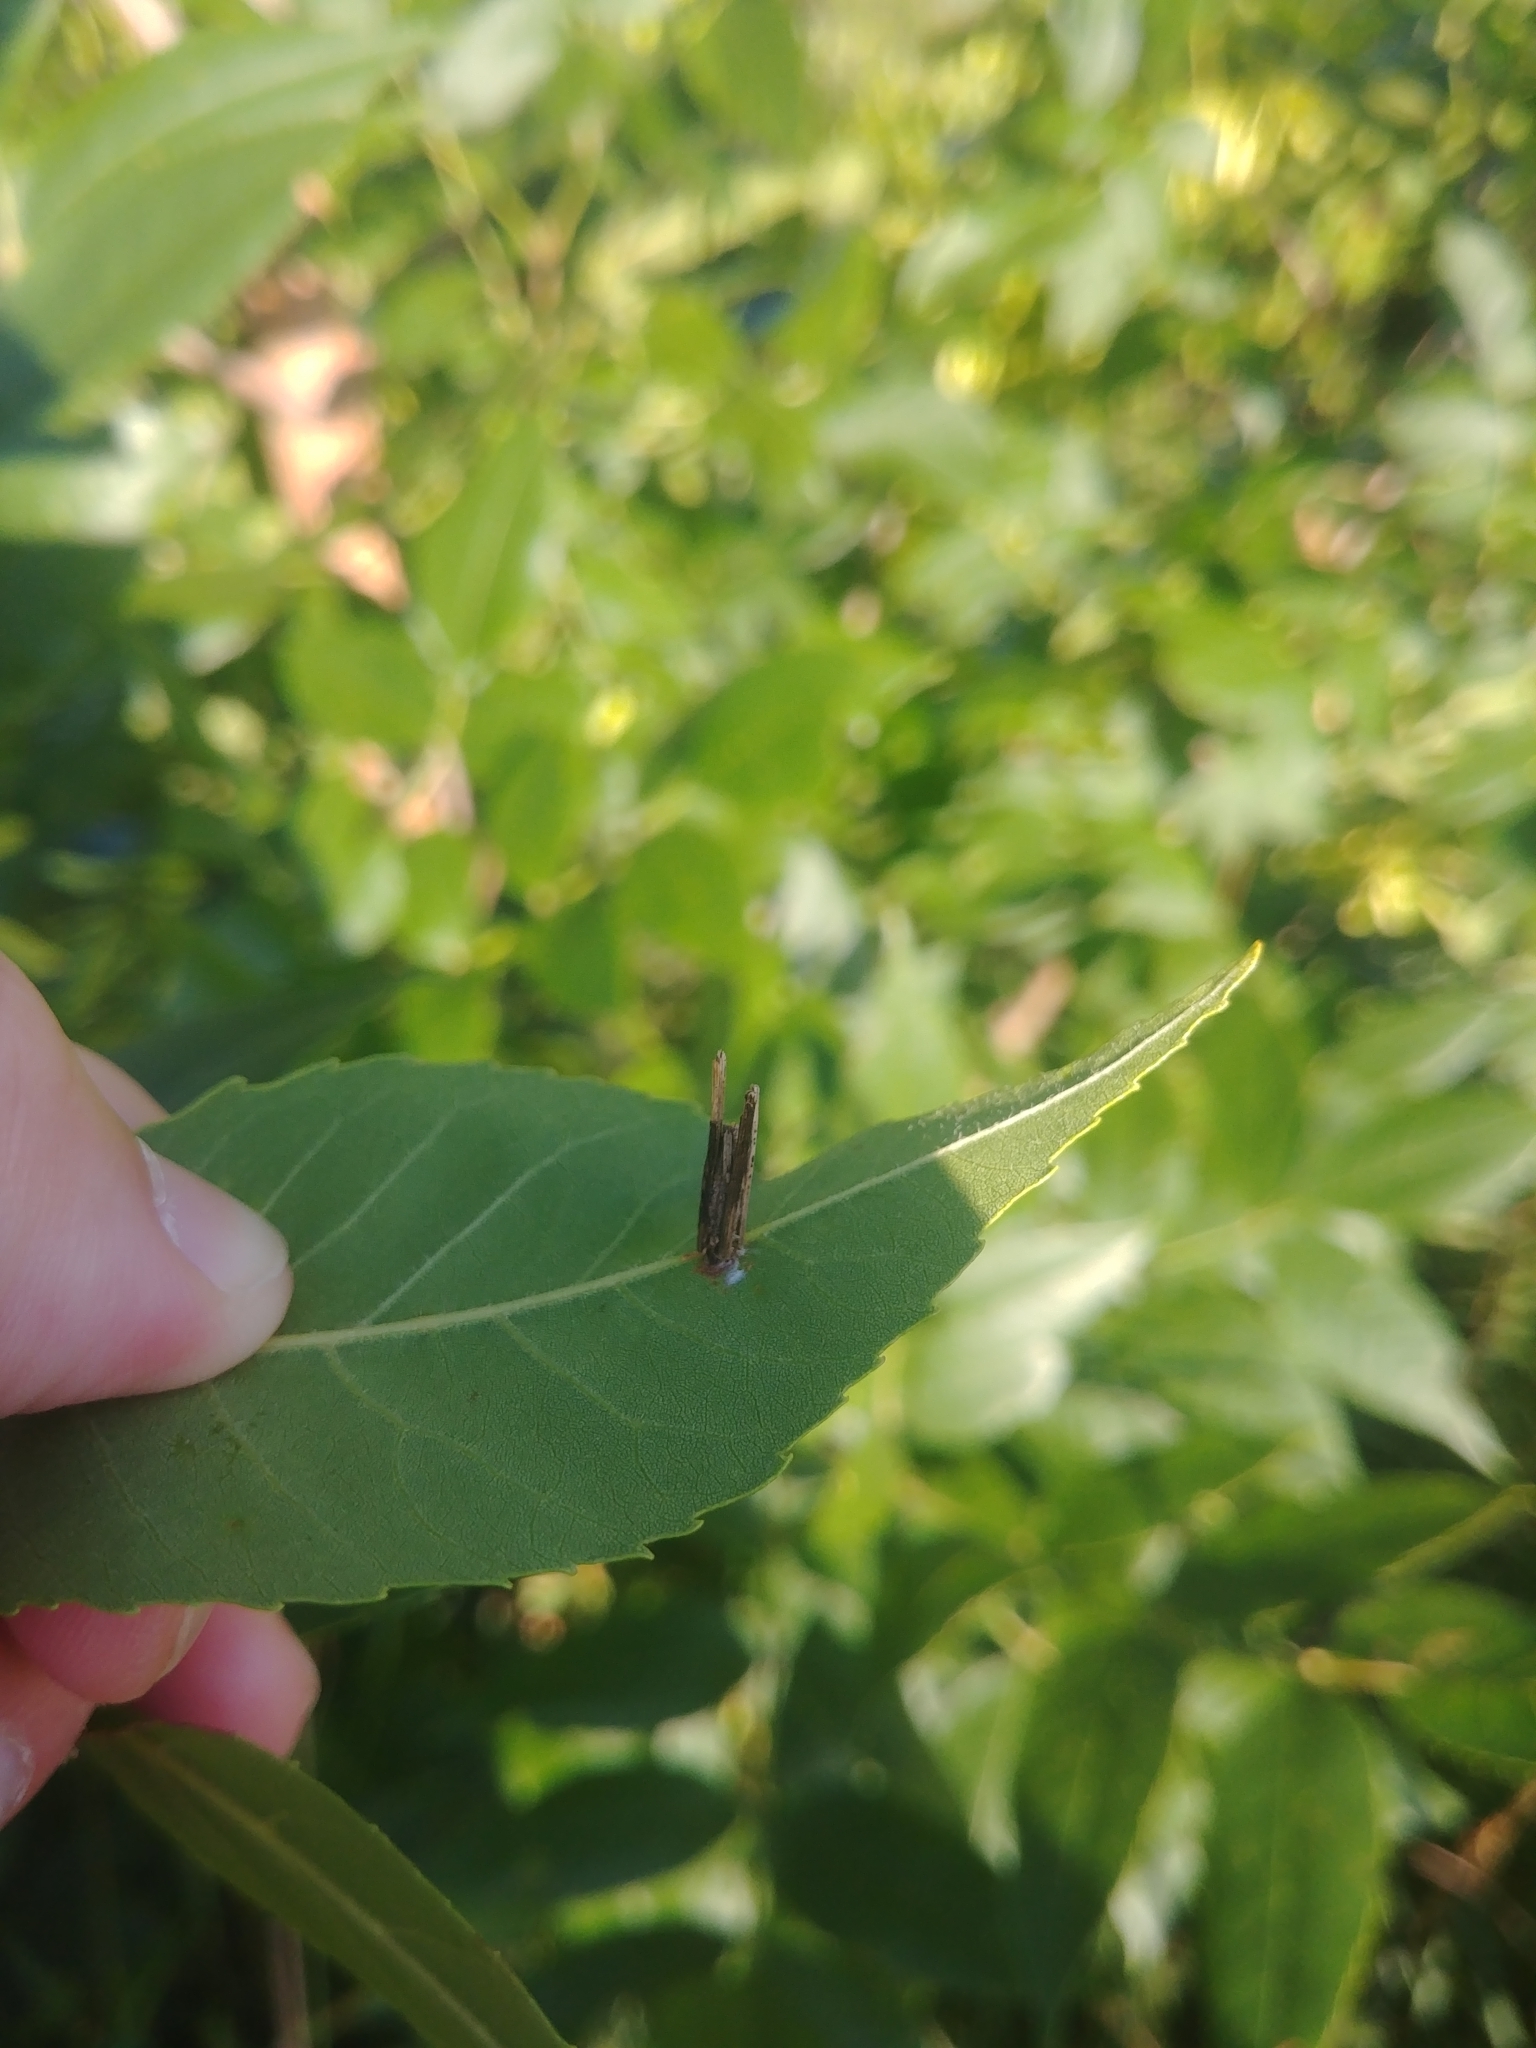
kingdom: Animalia
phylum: Arthropoda
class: Insecta
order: Lepidoptera
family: Psychidae
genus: Psyche
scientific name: Psyche casta
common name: Common sweep
